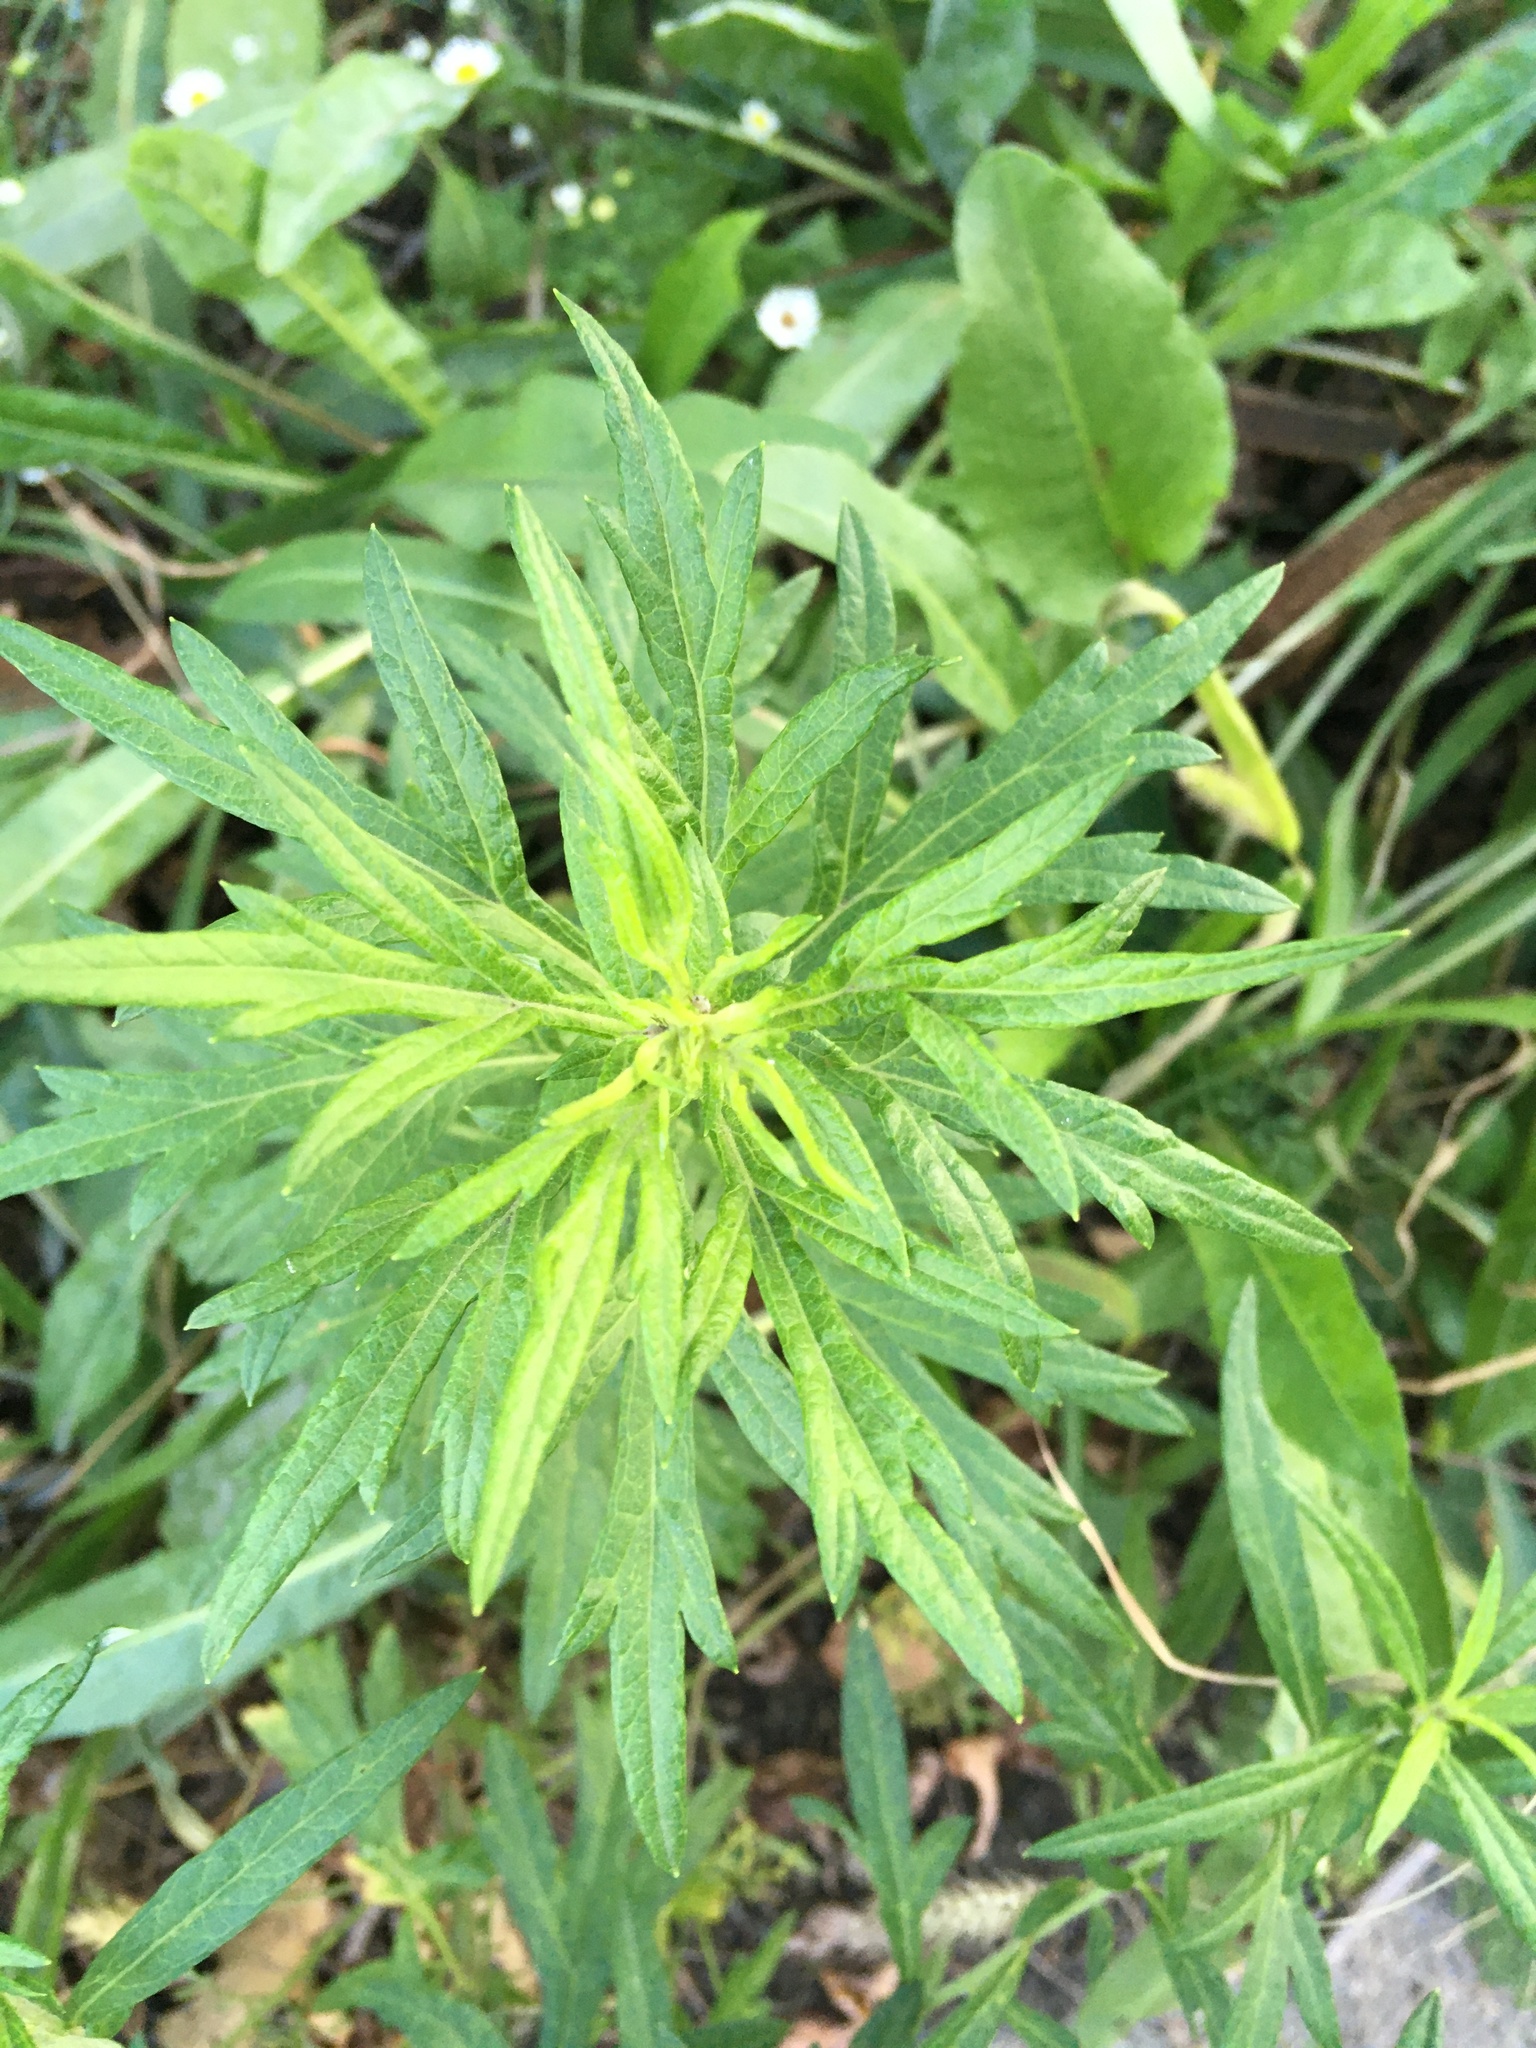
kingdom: Plantae
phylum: Tracheophyta
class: Magnoliopsida
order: Asterales
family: Asteraceae
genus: Artemisia
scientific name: Artemisia vulgaris
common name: Mugwort
